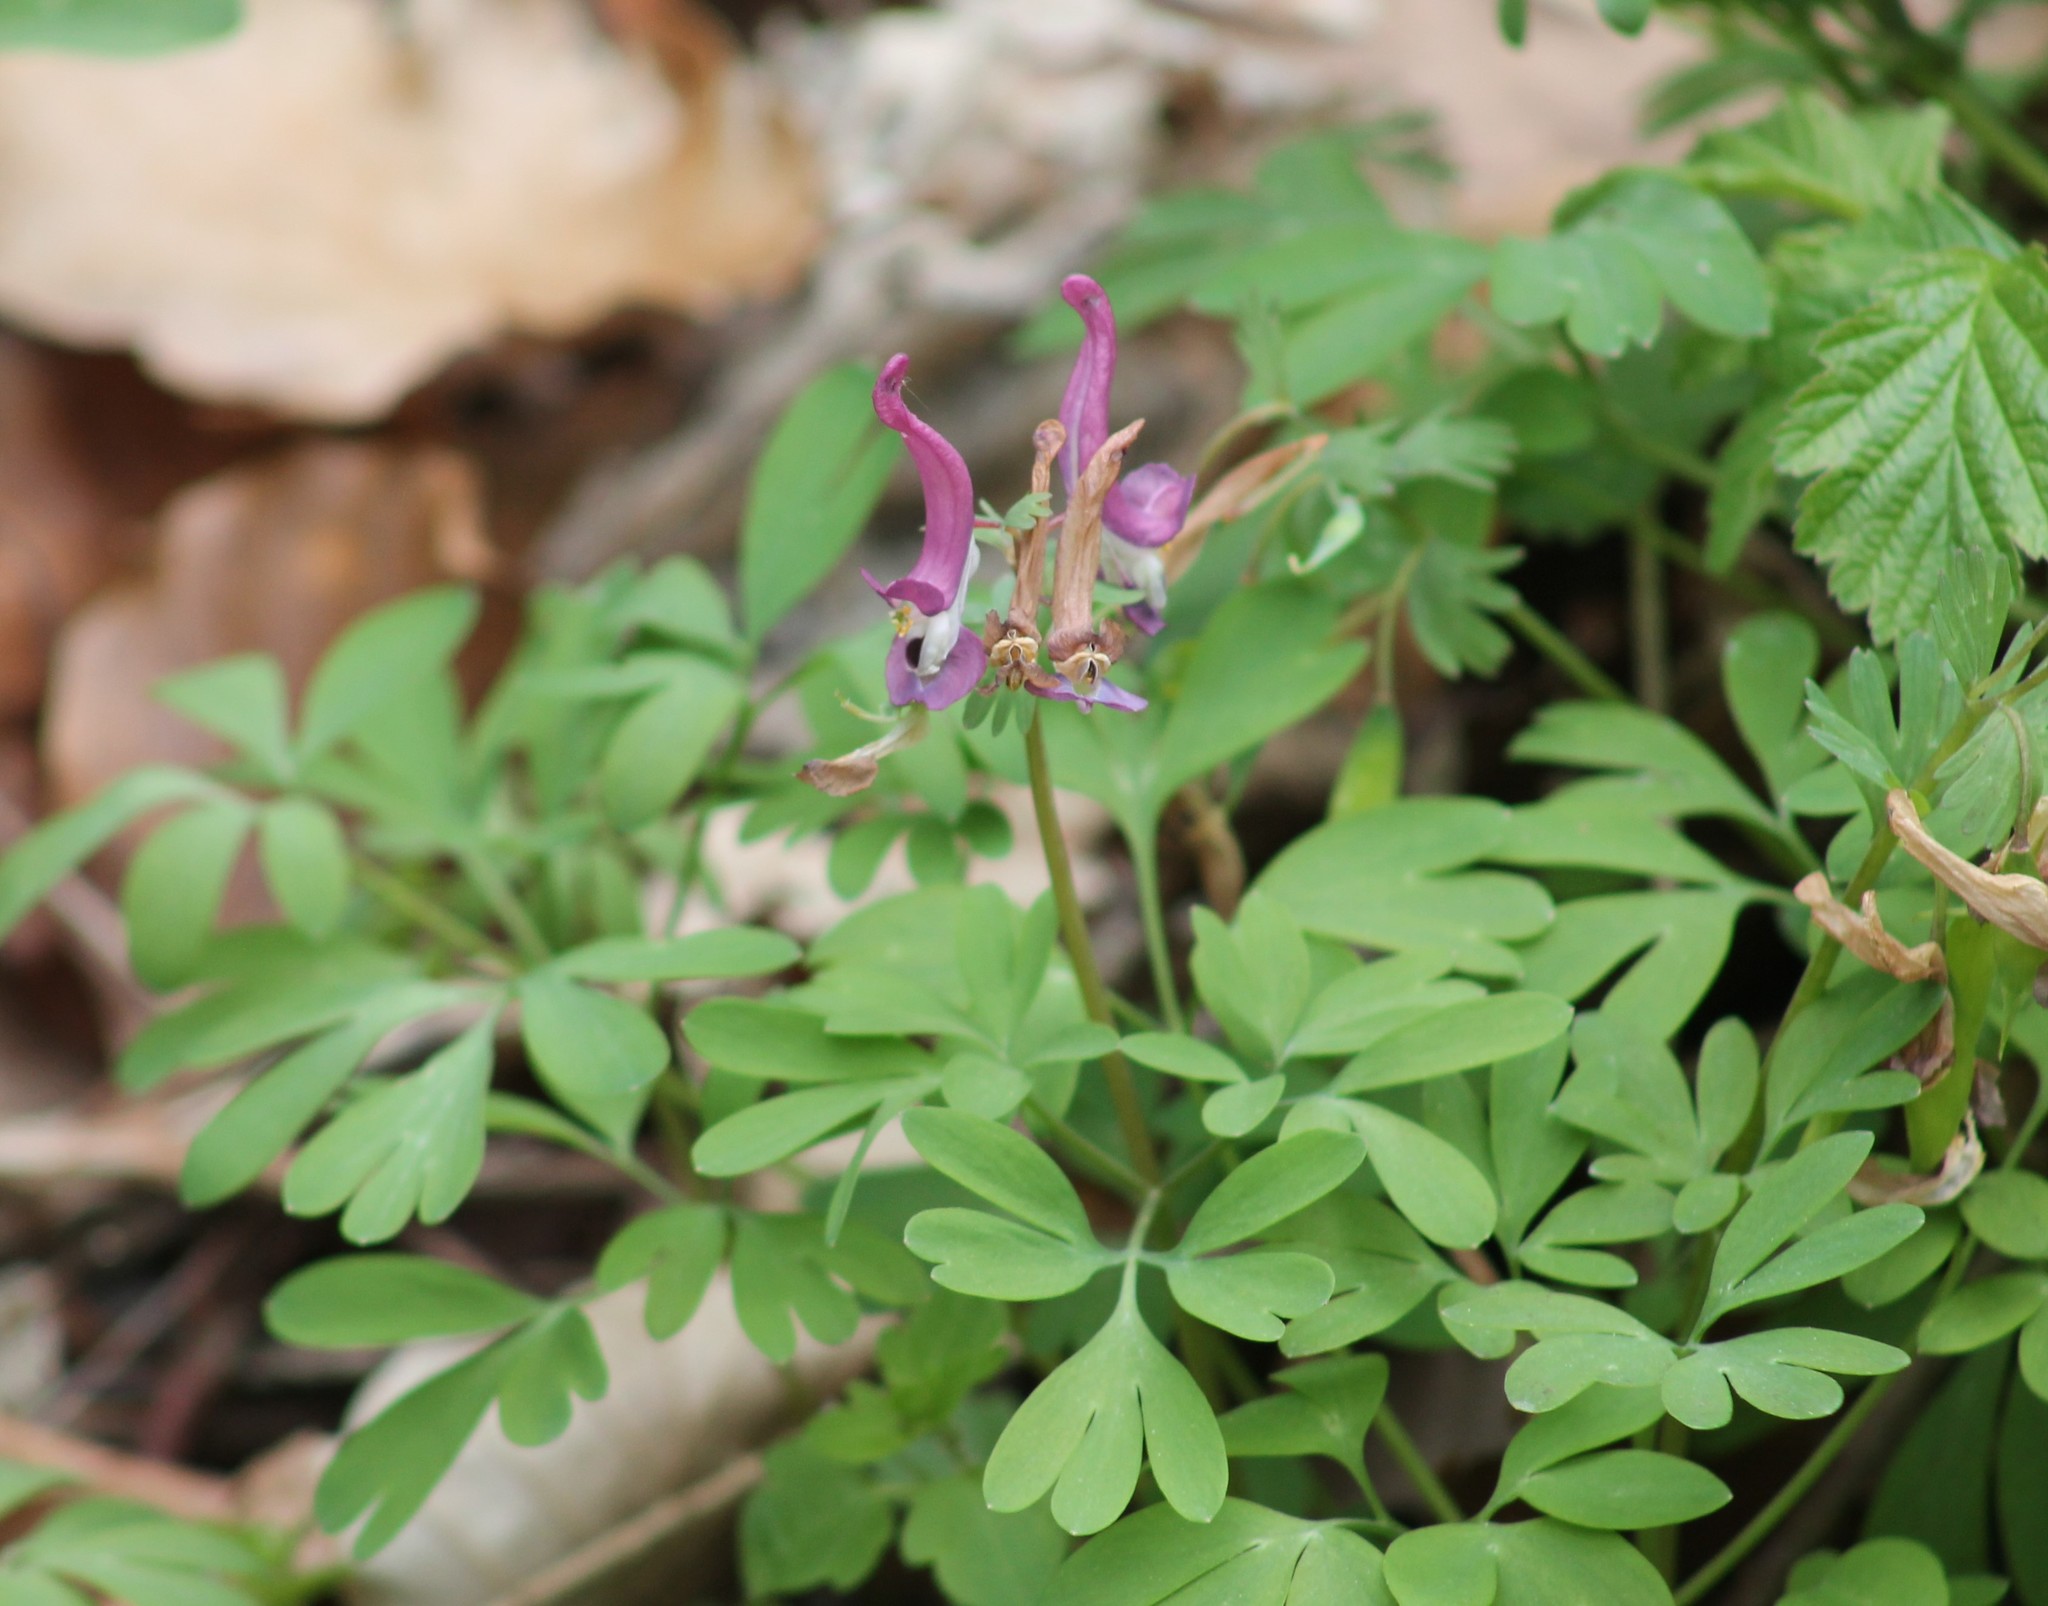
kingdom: Plantae
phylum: Tracheophyta
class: Magnoliopsida
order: Ranunculales
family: Papaveraceae
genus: Corydalis
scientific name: Corydalis solida
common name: Bird-in-a-bush
